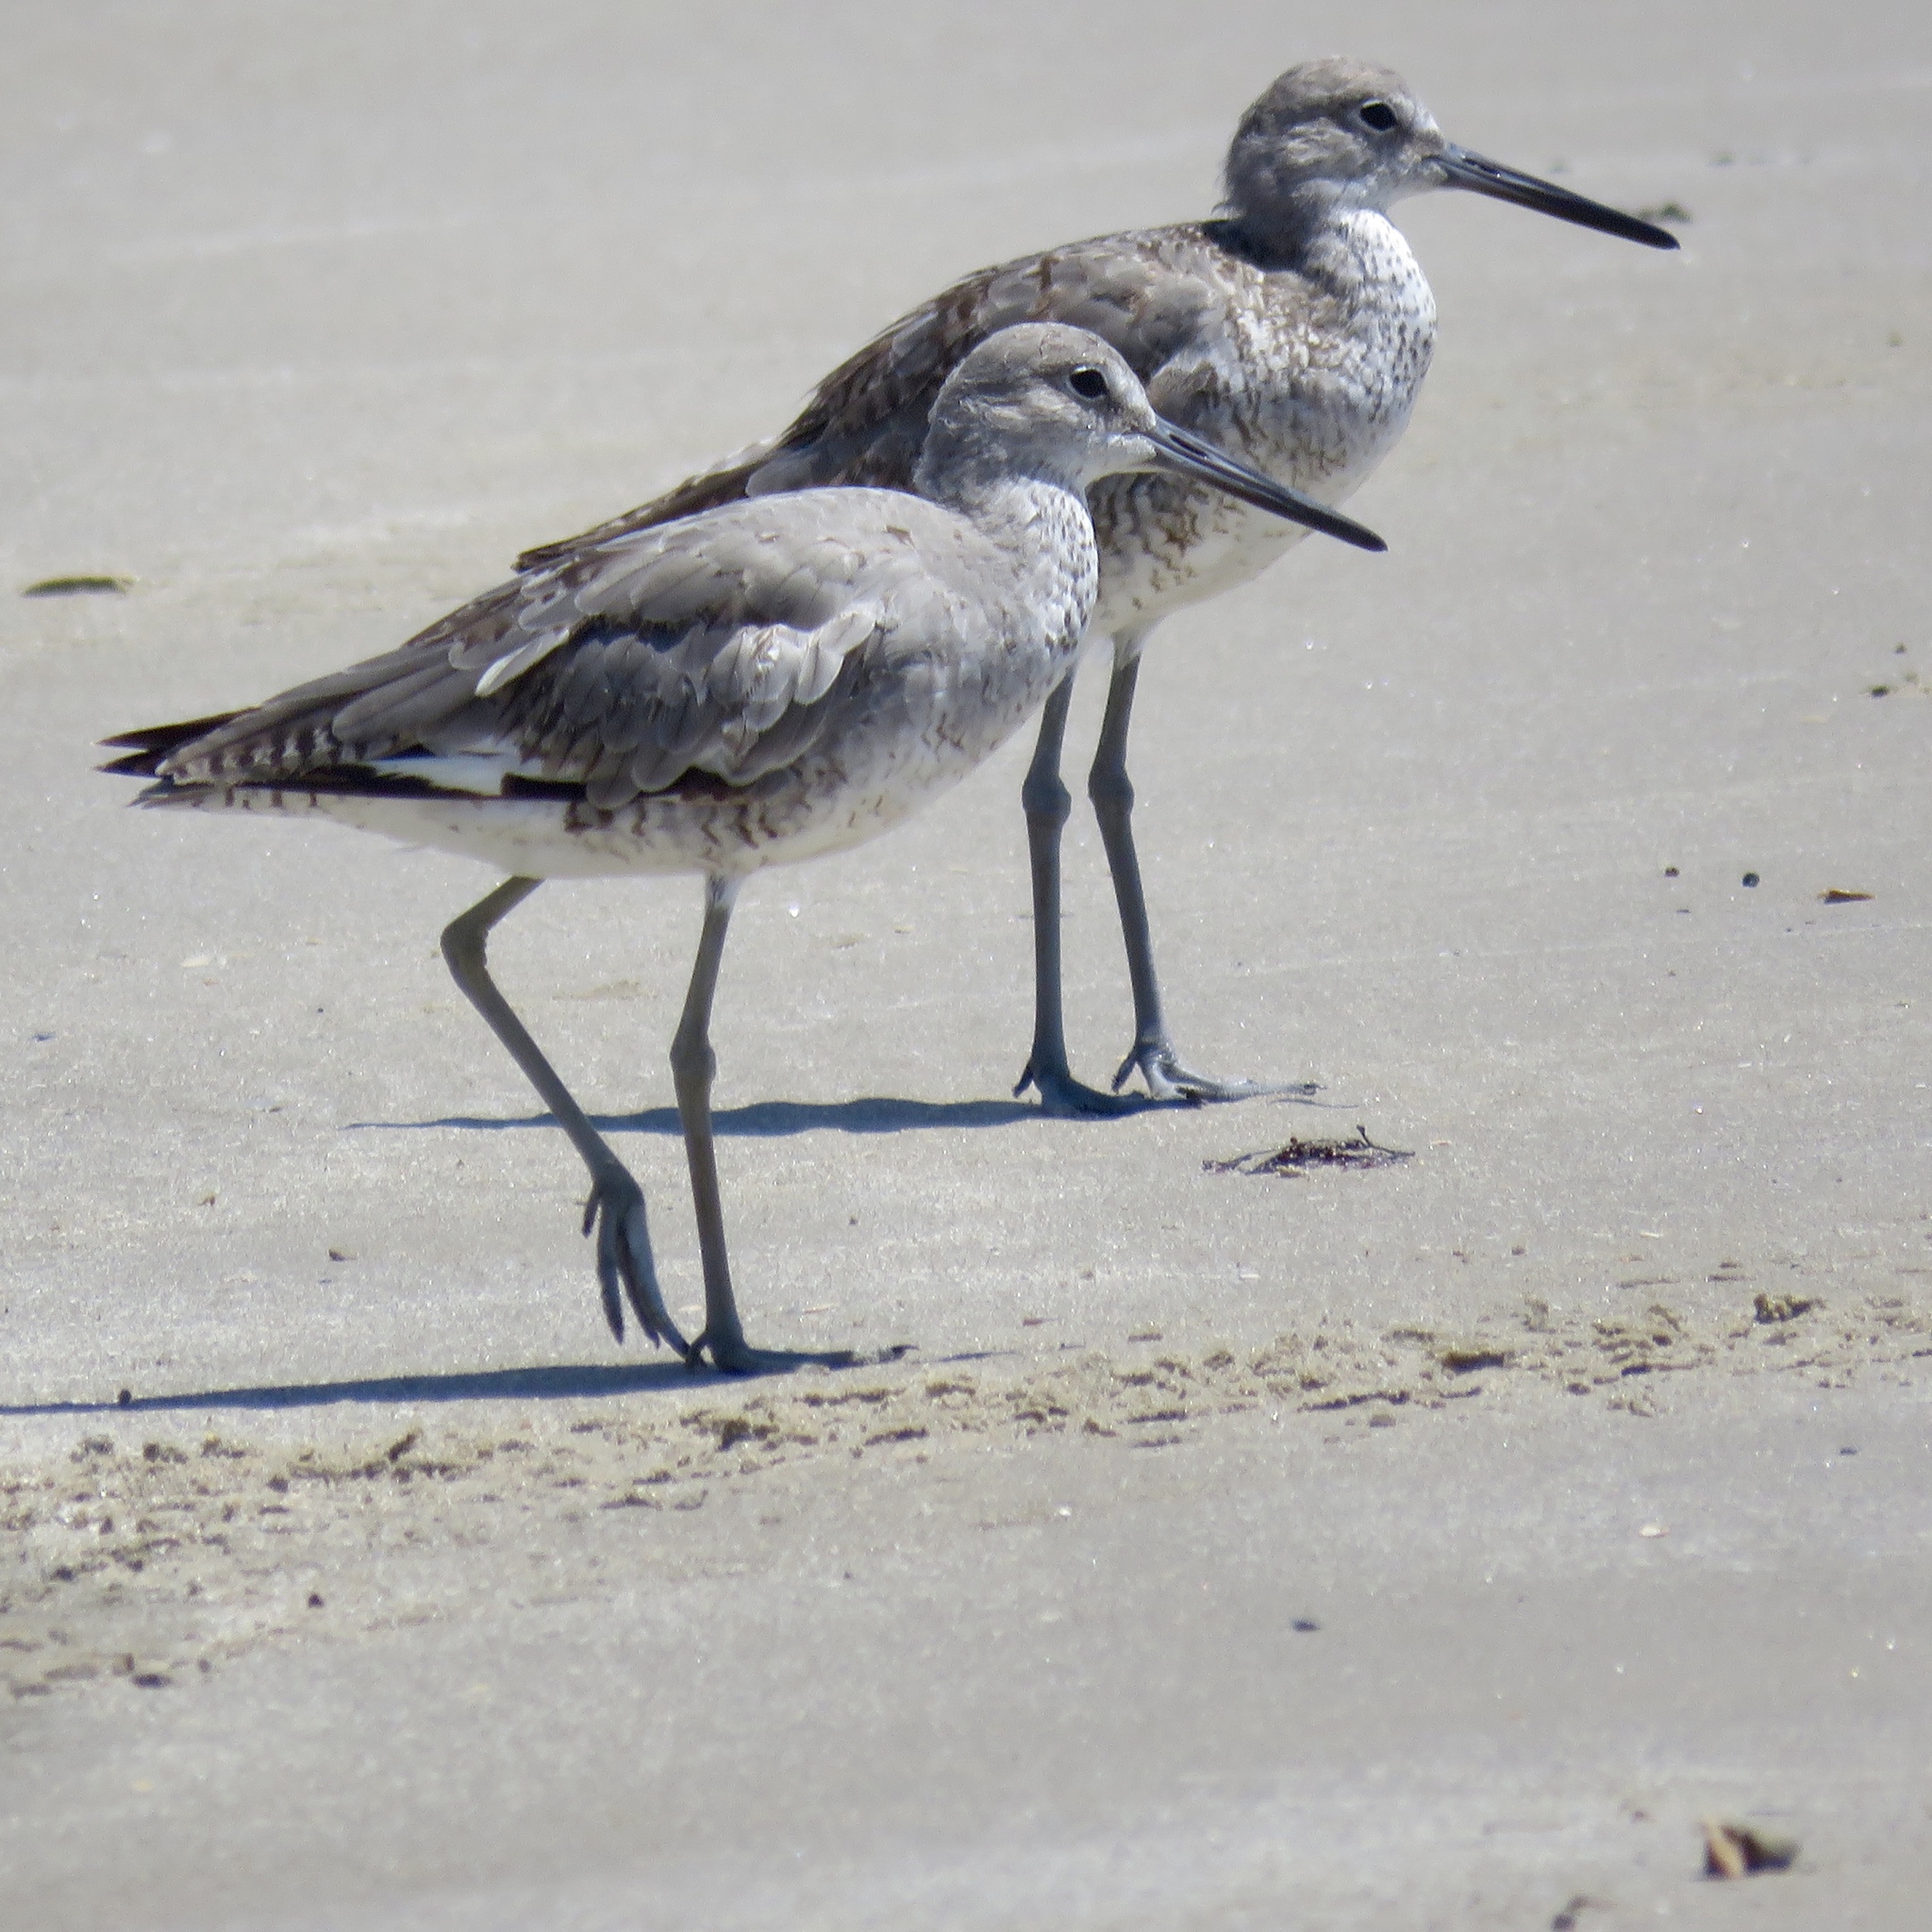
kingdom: Animalia
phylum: Chordata
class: Aves
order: Charadriiformes
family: Scolopacidae
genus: Tringa
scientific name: Tringa semipalmata
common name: Willet
